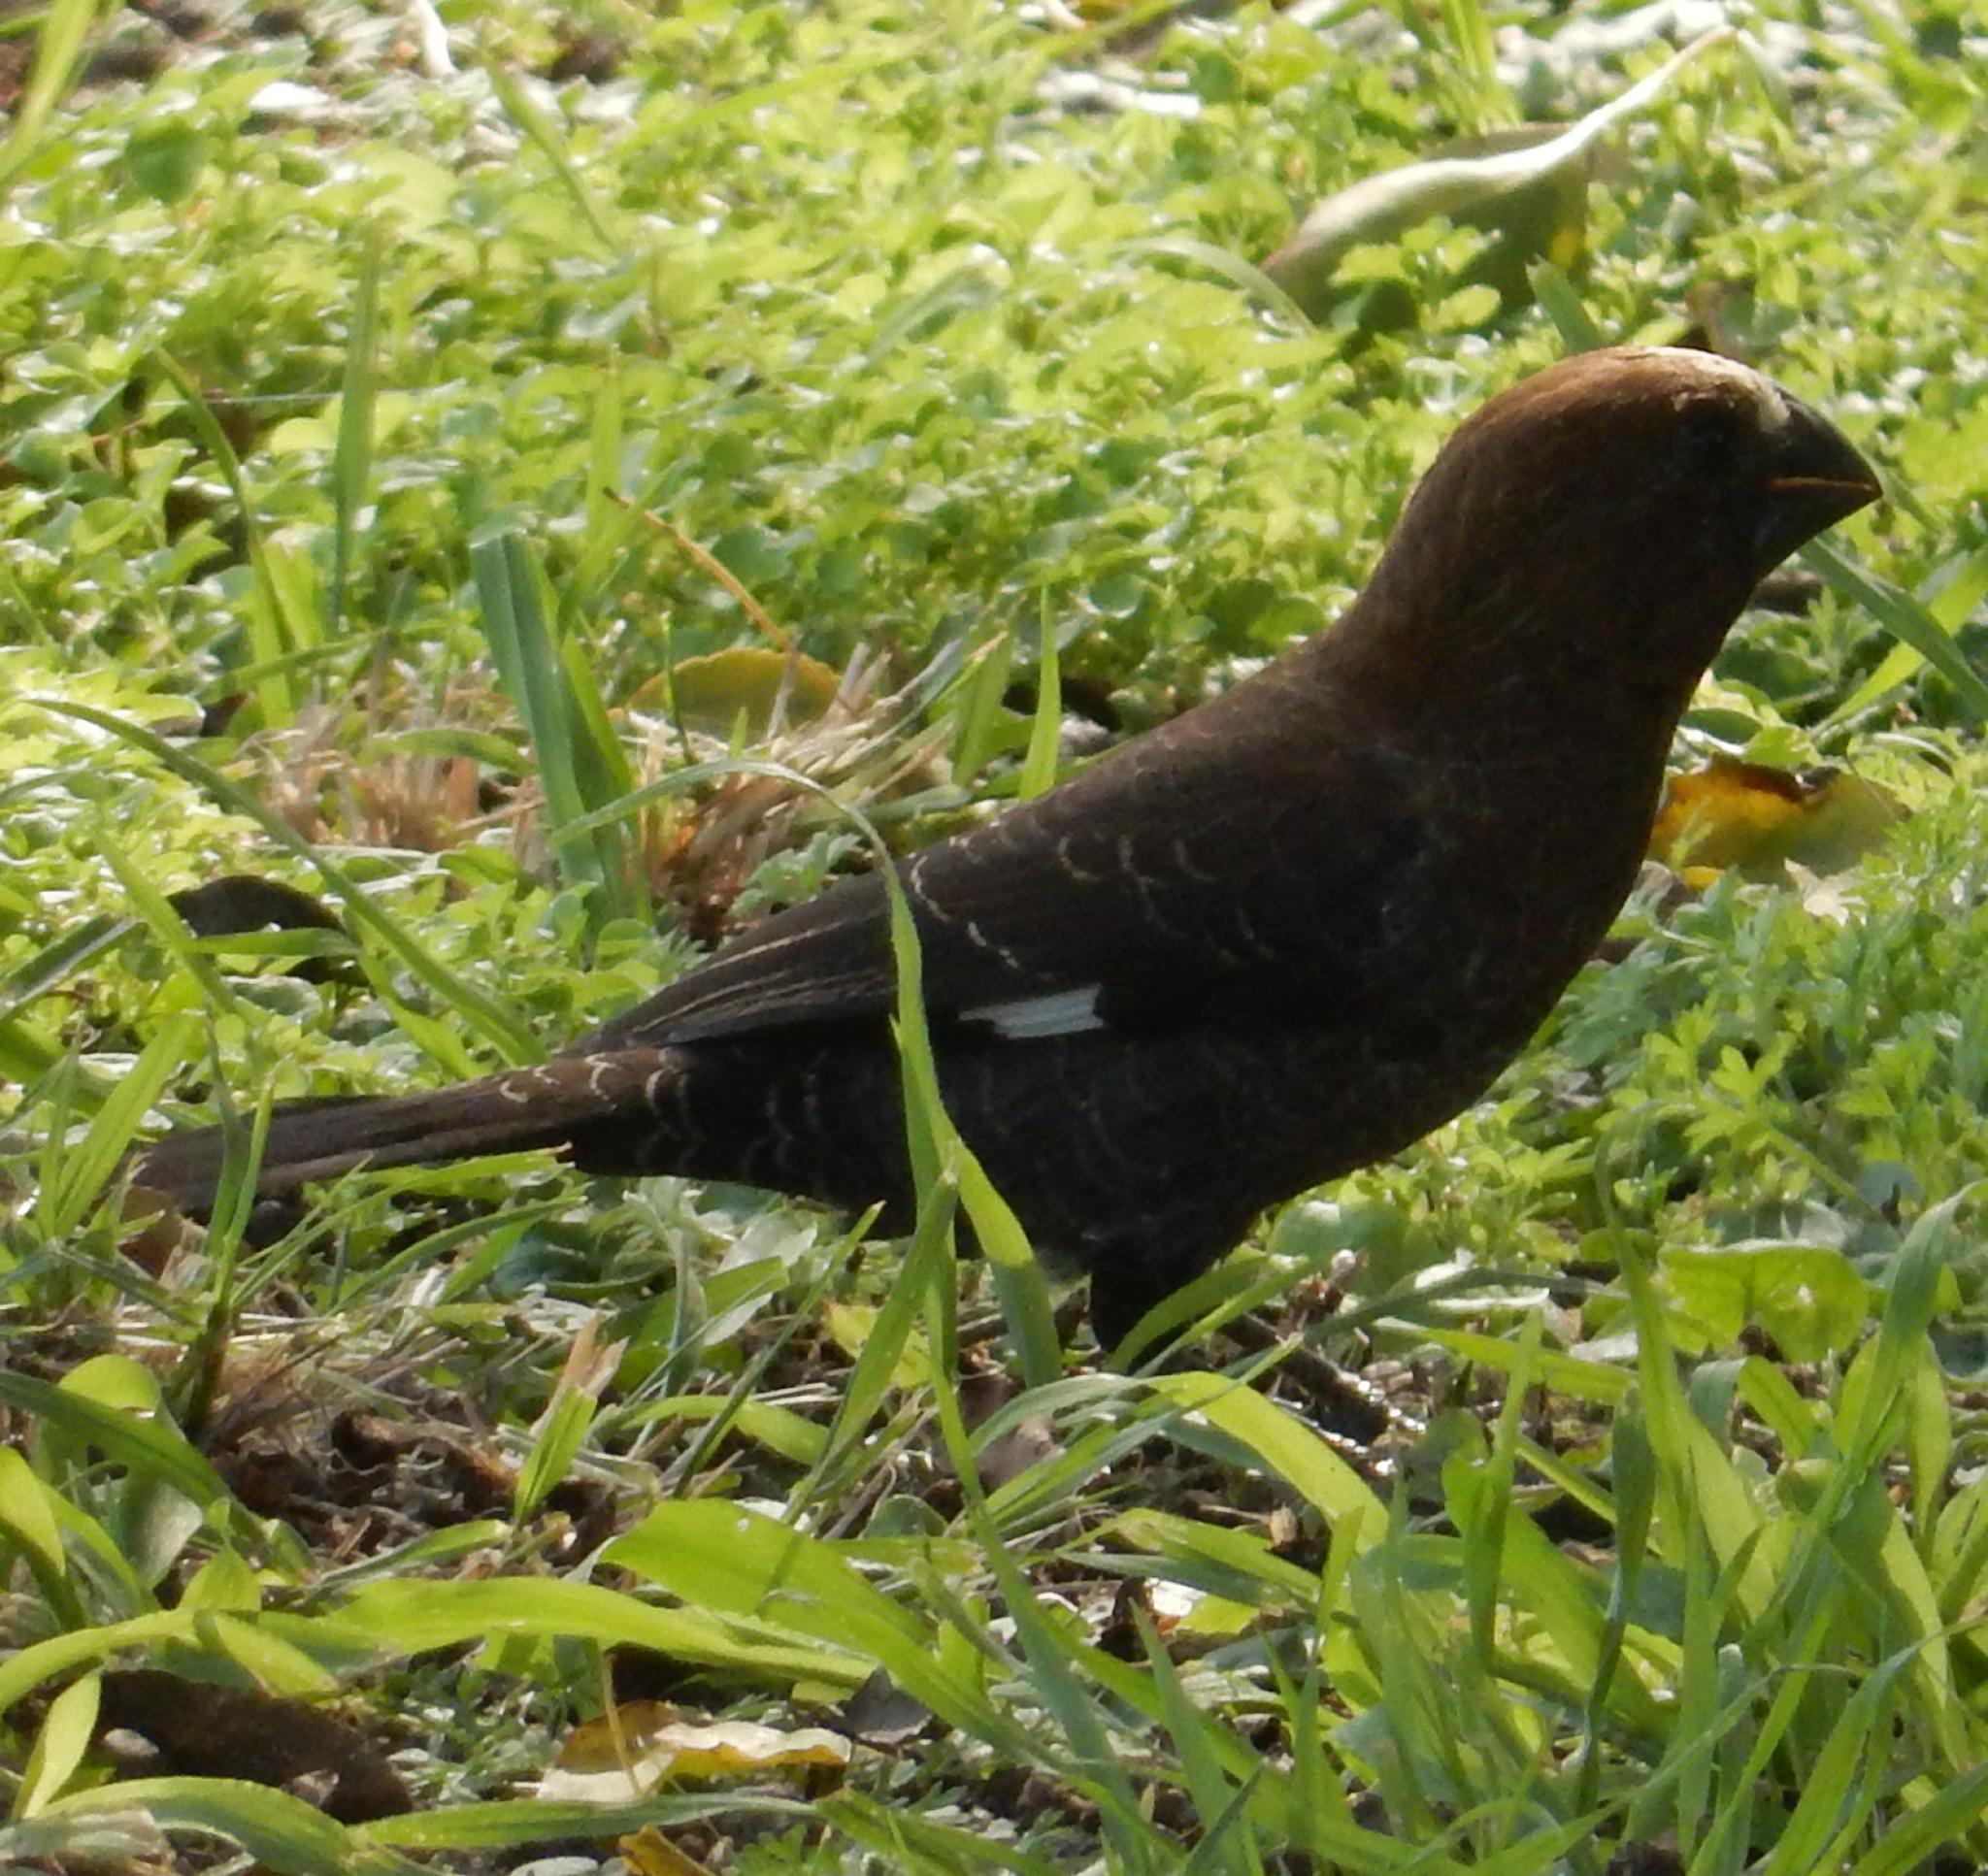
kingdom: Animalia
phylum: Chordata
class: Aves
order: Passeriformes
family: Ploceidae
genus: Amblyospiza
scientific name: Amblyospiza albifrons
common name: Thick-billed weaver
